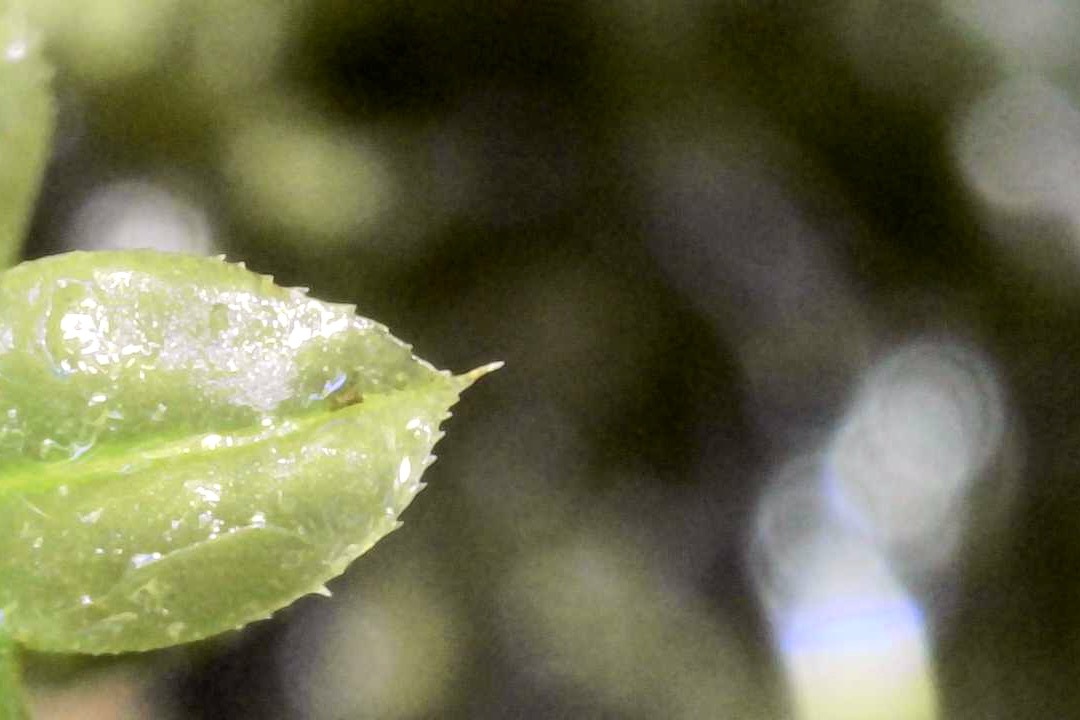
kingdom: Plantae
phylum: Bryophyta
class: Bryopsida
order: Bryales
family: Mniaceae
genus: Plagiomnium
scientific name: Plagiomnium cuspidatum
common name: Woodsy leafy moss
